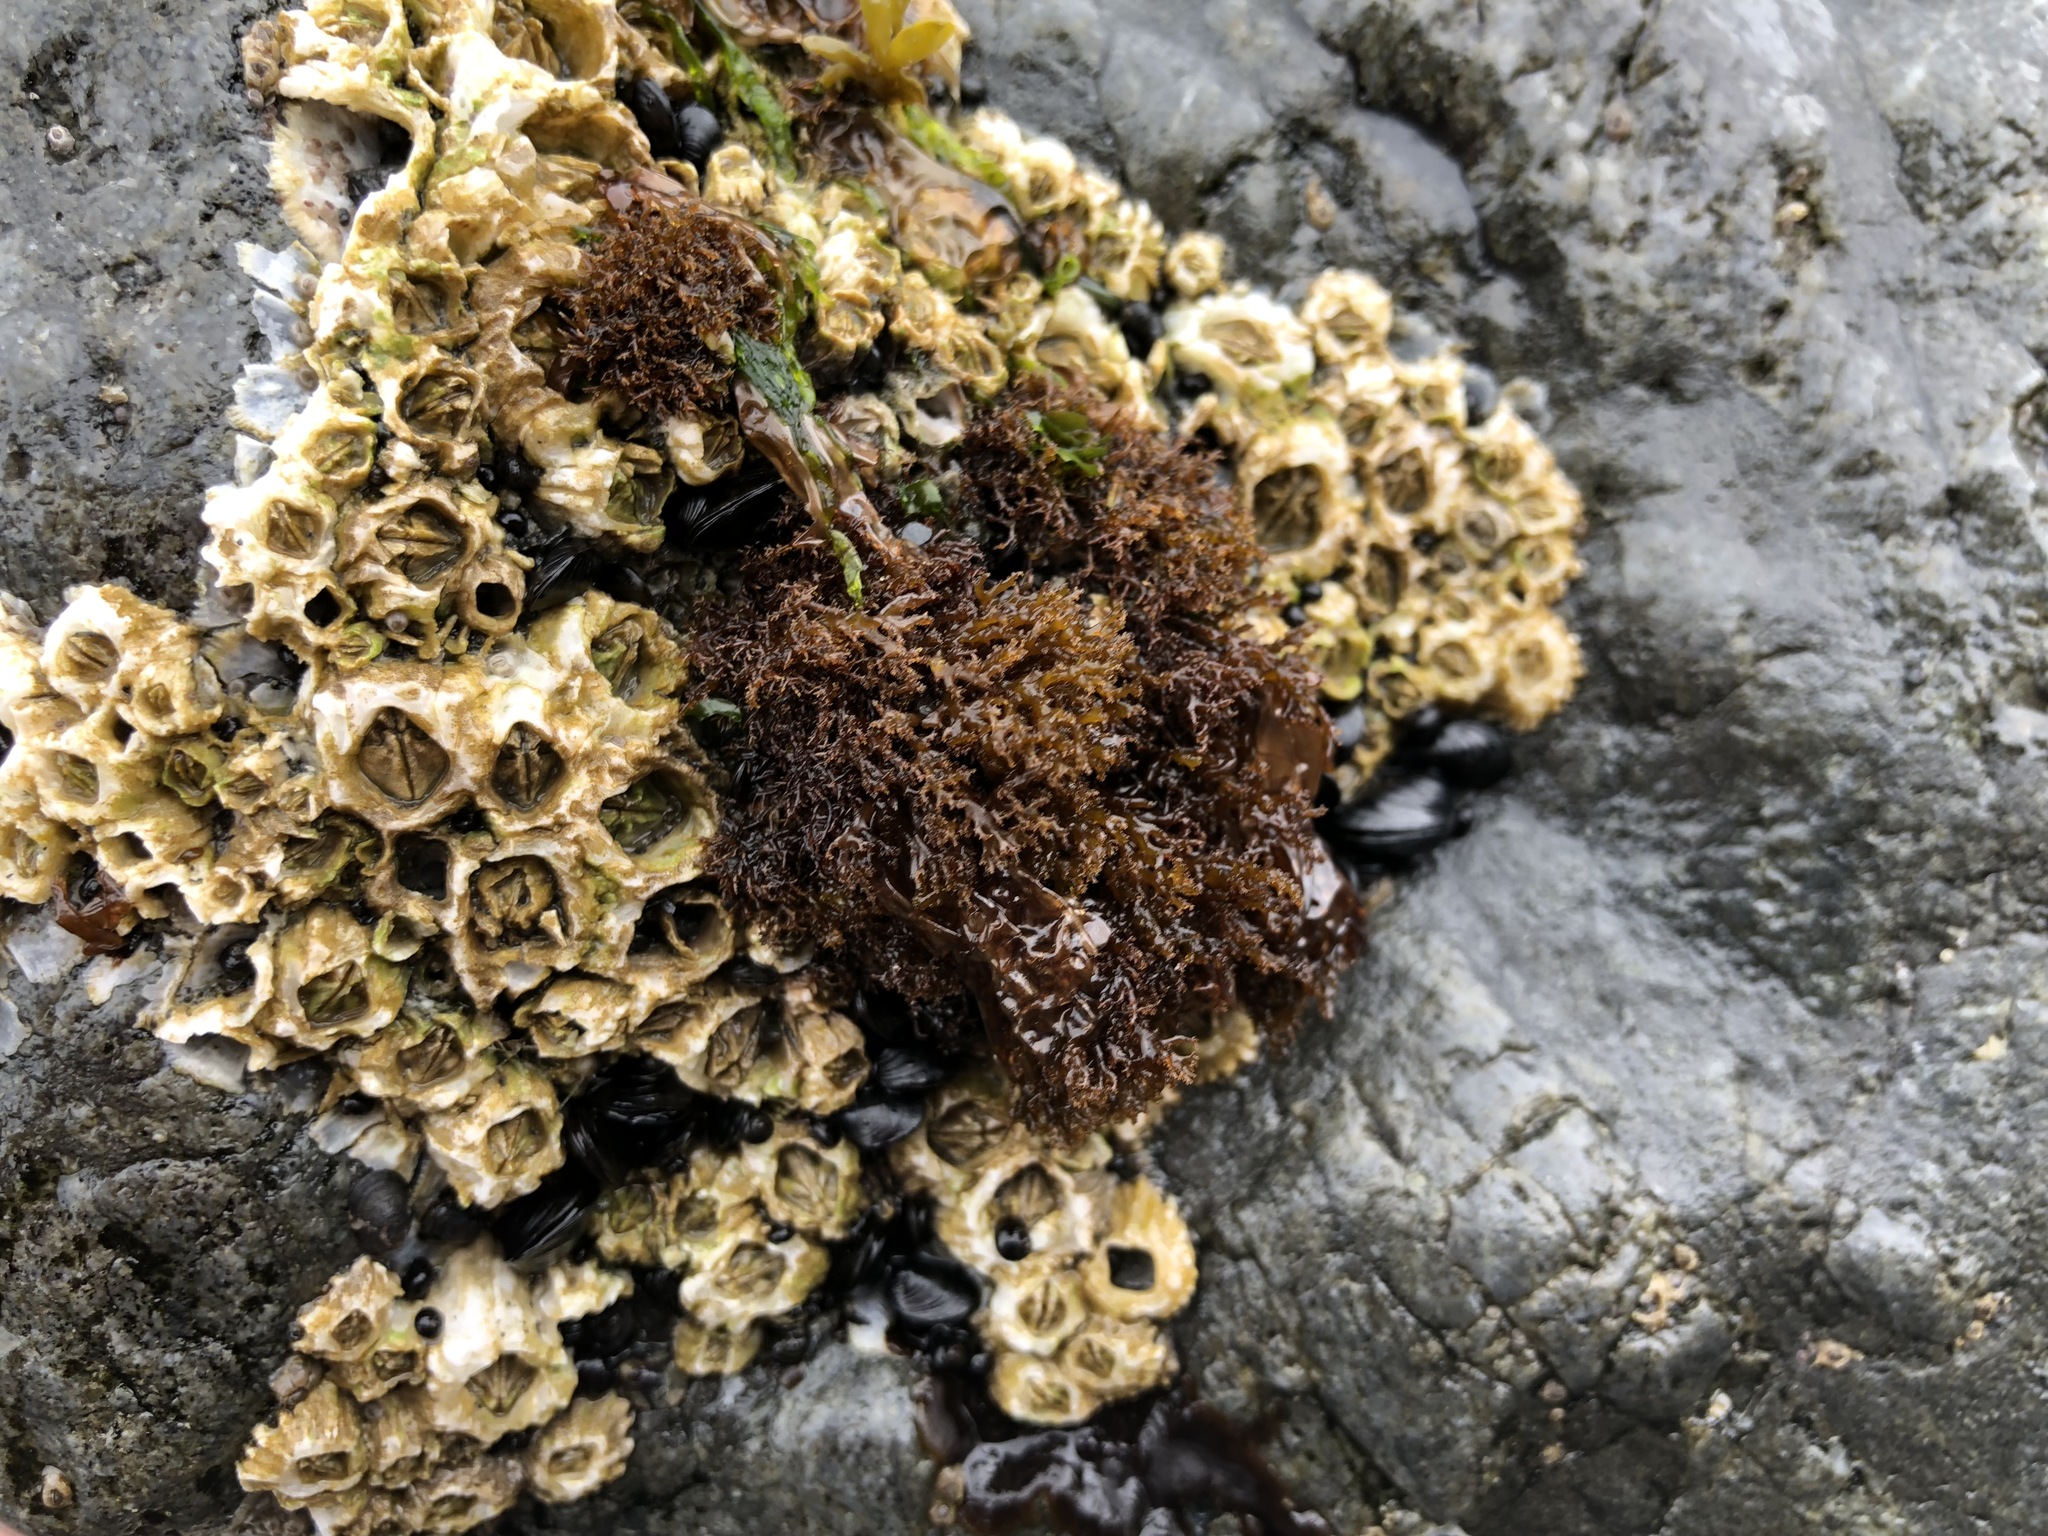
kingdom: Plantae
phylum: Rhodophyta
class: Florideophyceae
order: Gigartinales
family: Endocladiaceae
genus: Endocladia
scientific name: Endocladia muricata
